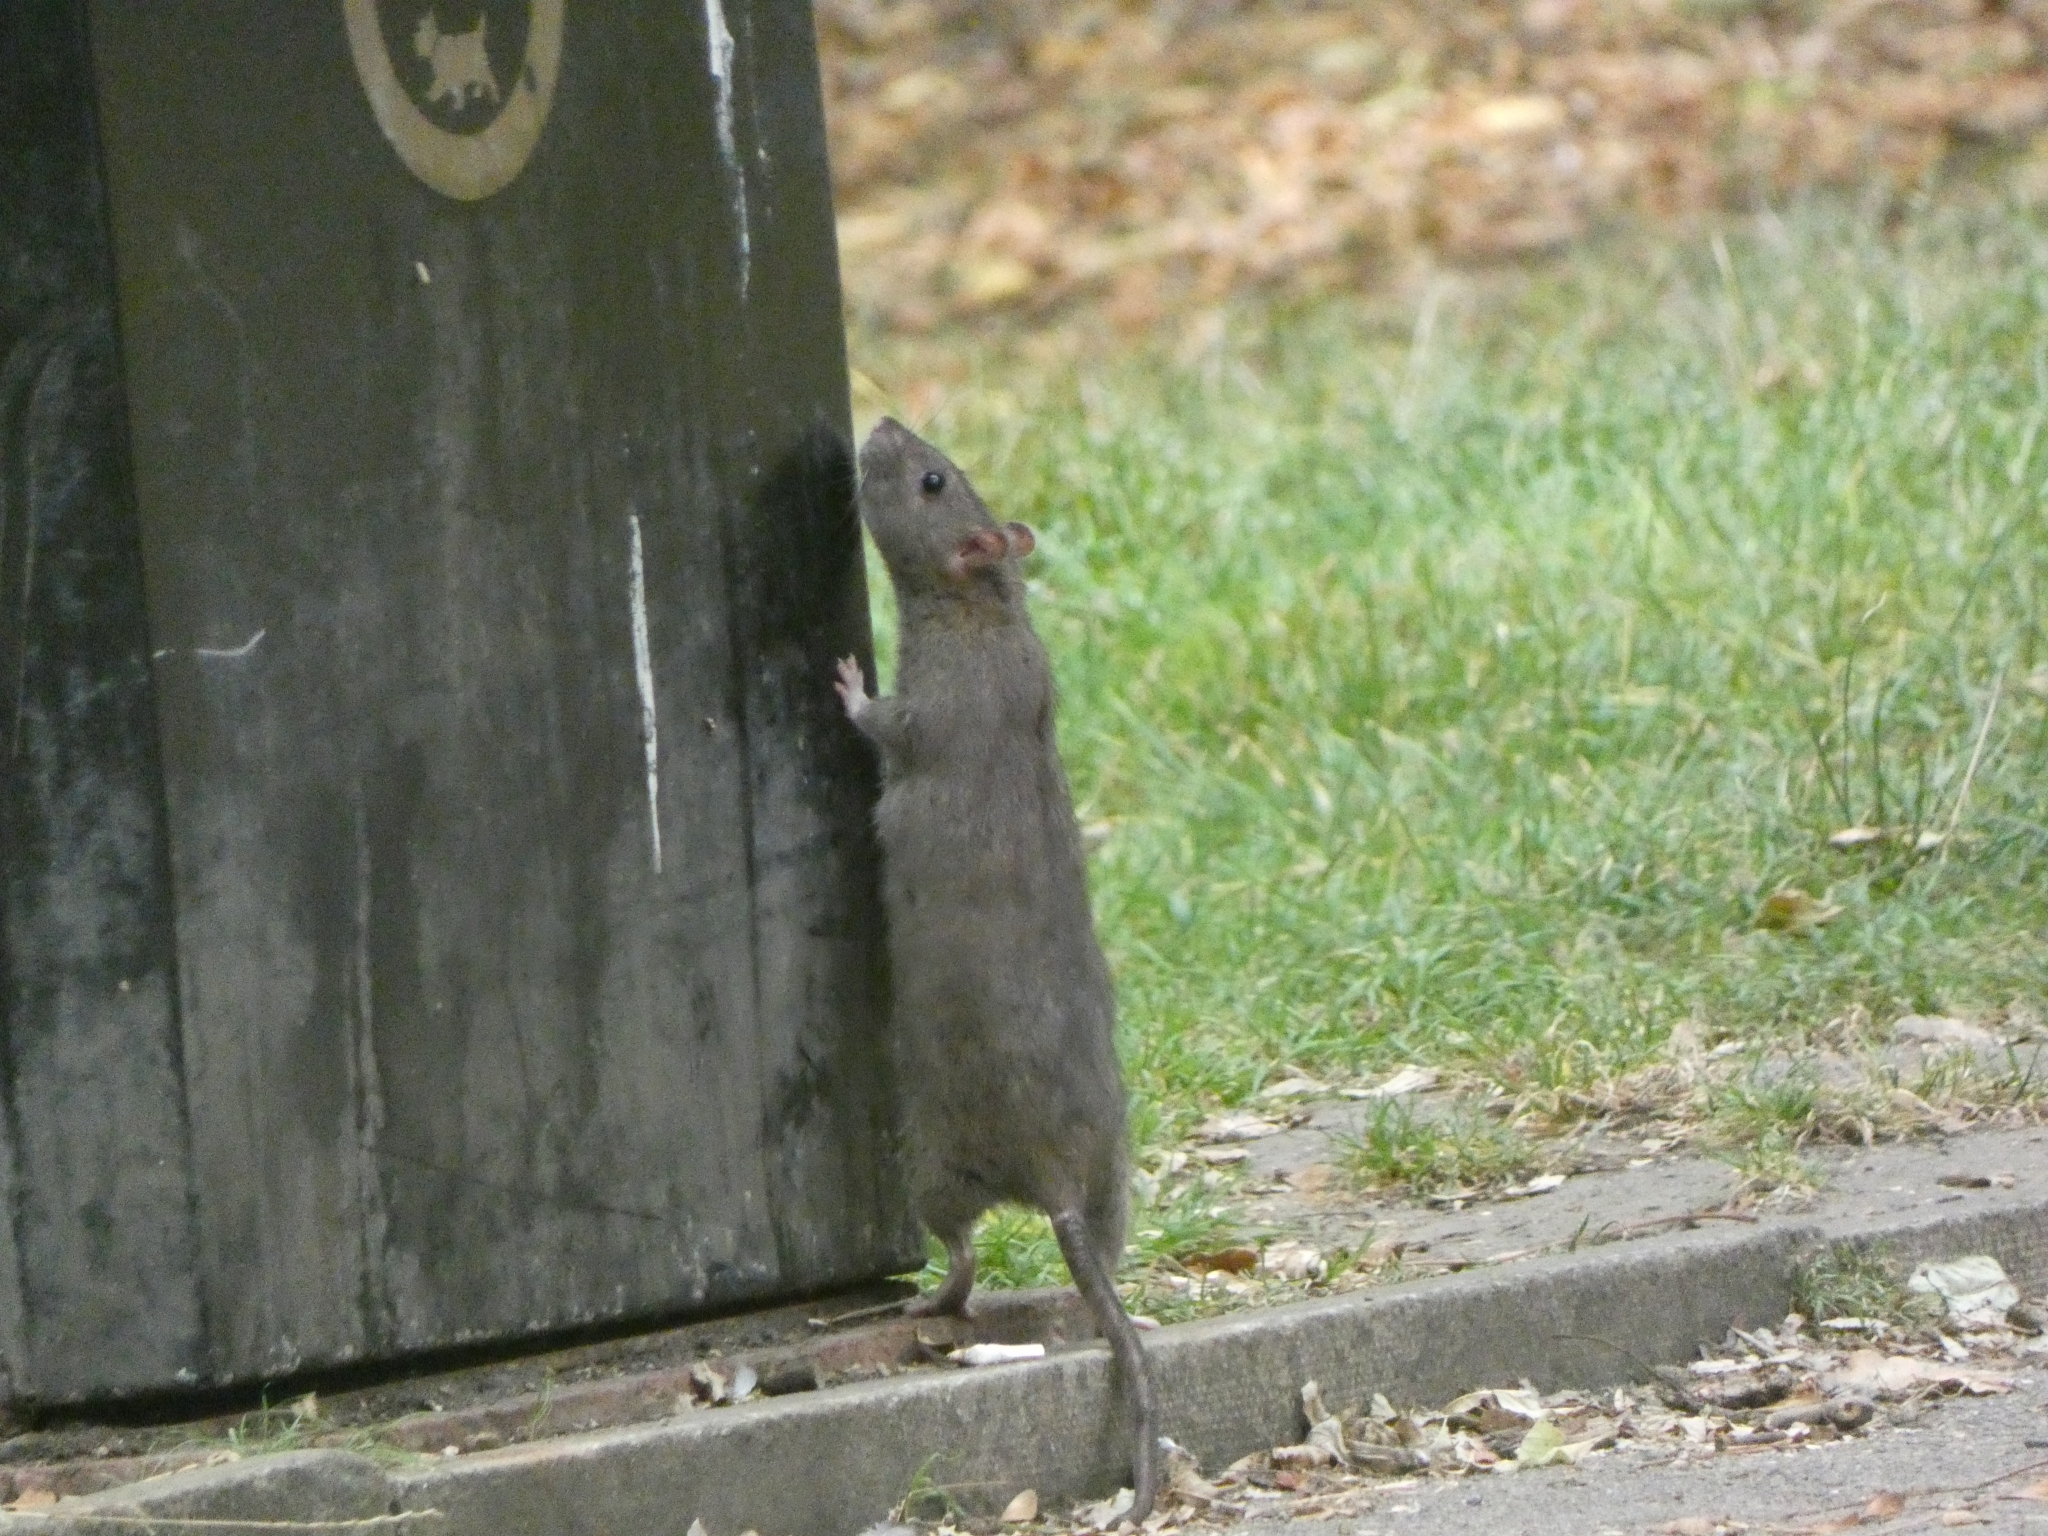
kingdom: Animalia
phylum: Chordata
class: Mammalia
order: Rodentia
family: Muridae
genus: Rattus
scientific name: Rattus norvegicus
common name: Brown rat
